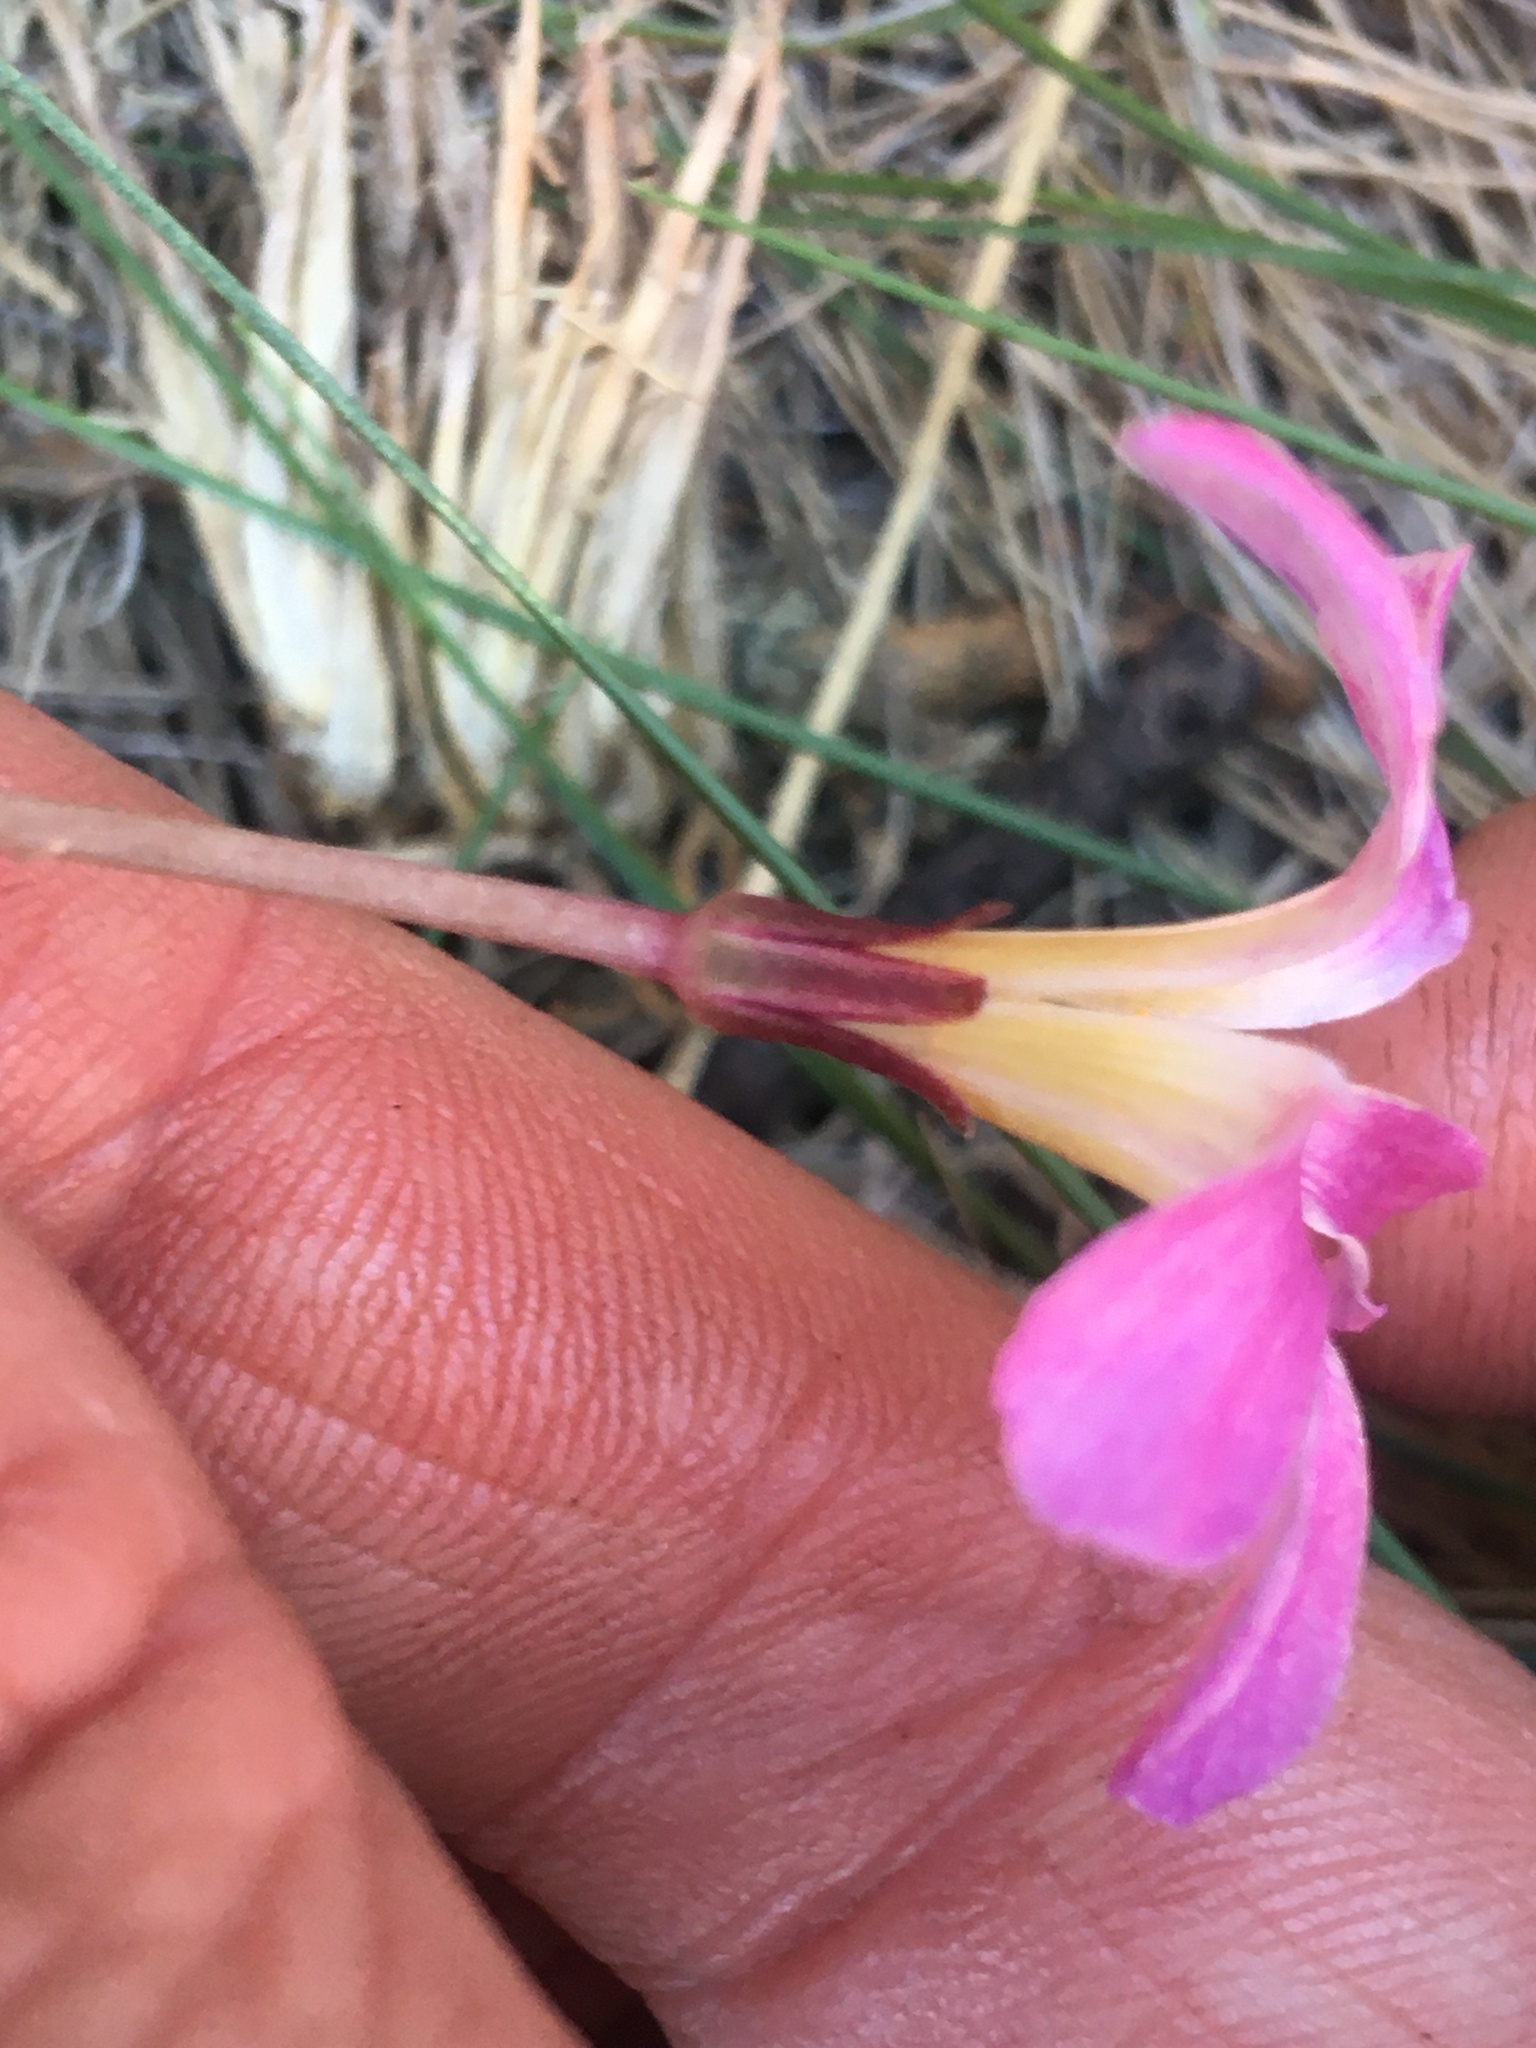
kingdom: Plantae
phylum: Tracheophyta
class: Magnoliopsida
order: Oxalidales
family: Oxalidaceae
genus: Oxalis
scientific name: Oxalis pocockiae
